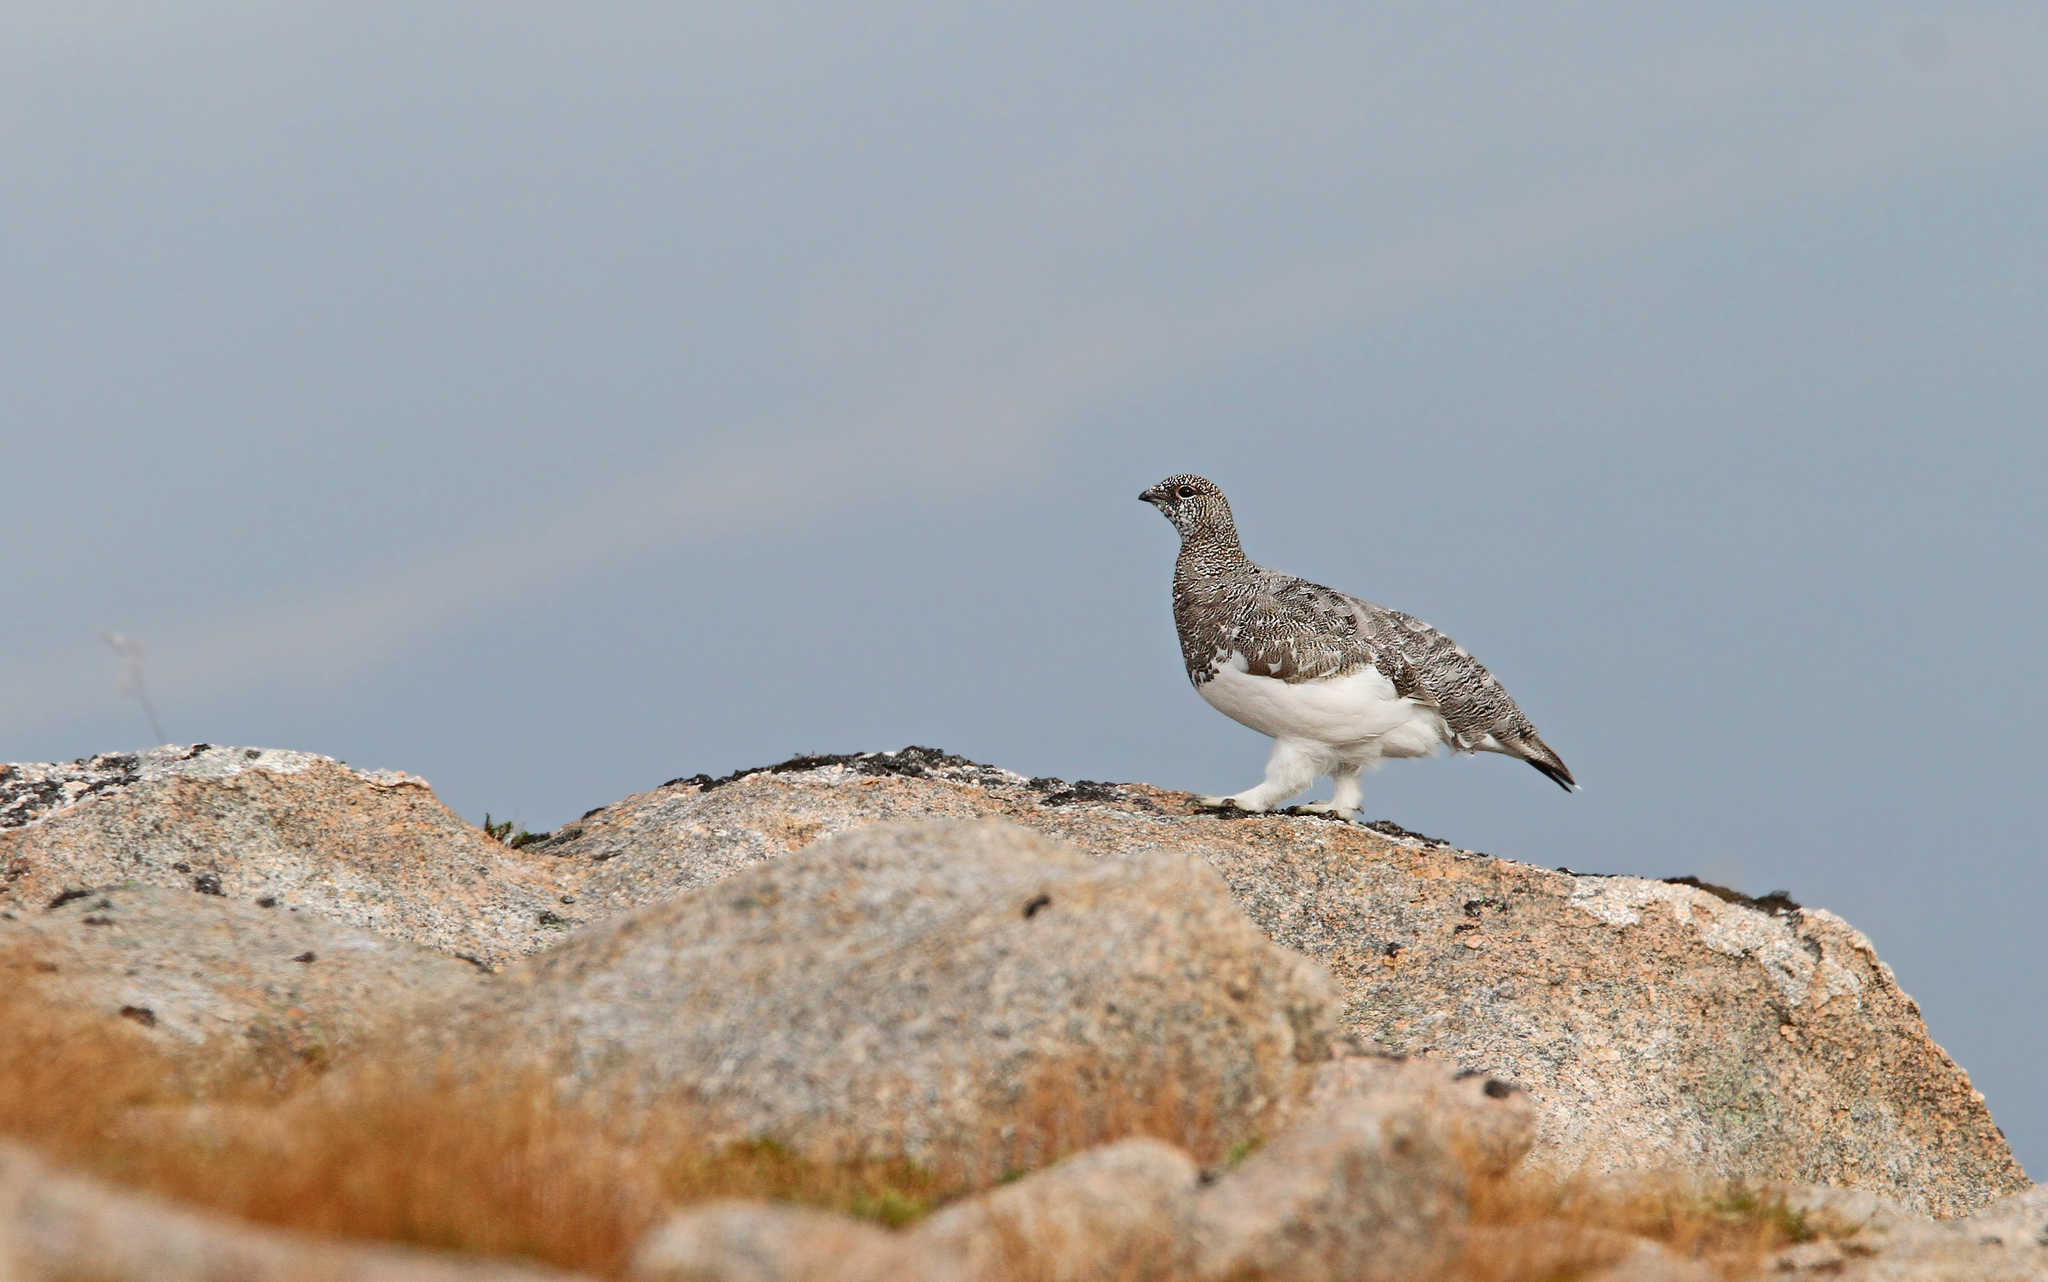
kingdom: Animalia
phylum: Chordata
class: Aves
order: Galliformes
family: Phasianidae
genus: Lagopus
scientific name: Lagopus muta
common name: Rock ptarmigan
